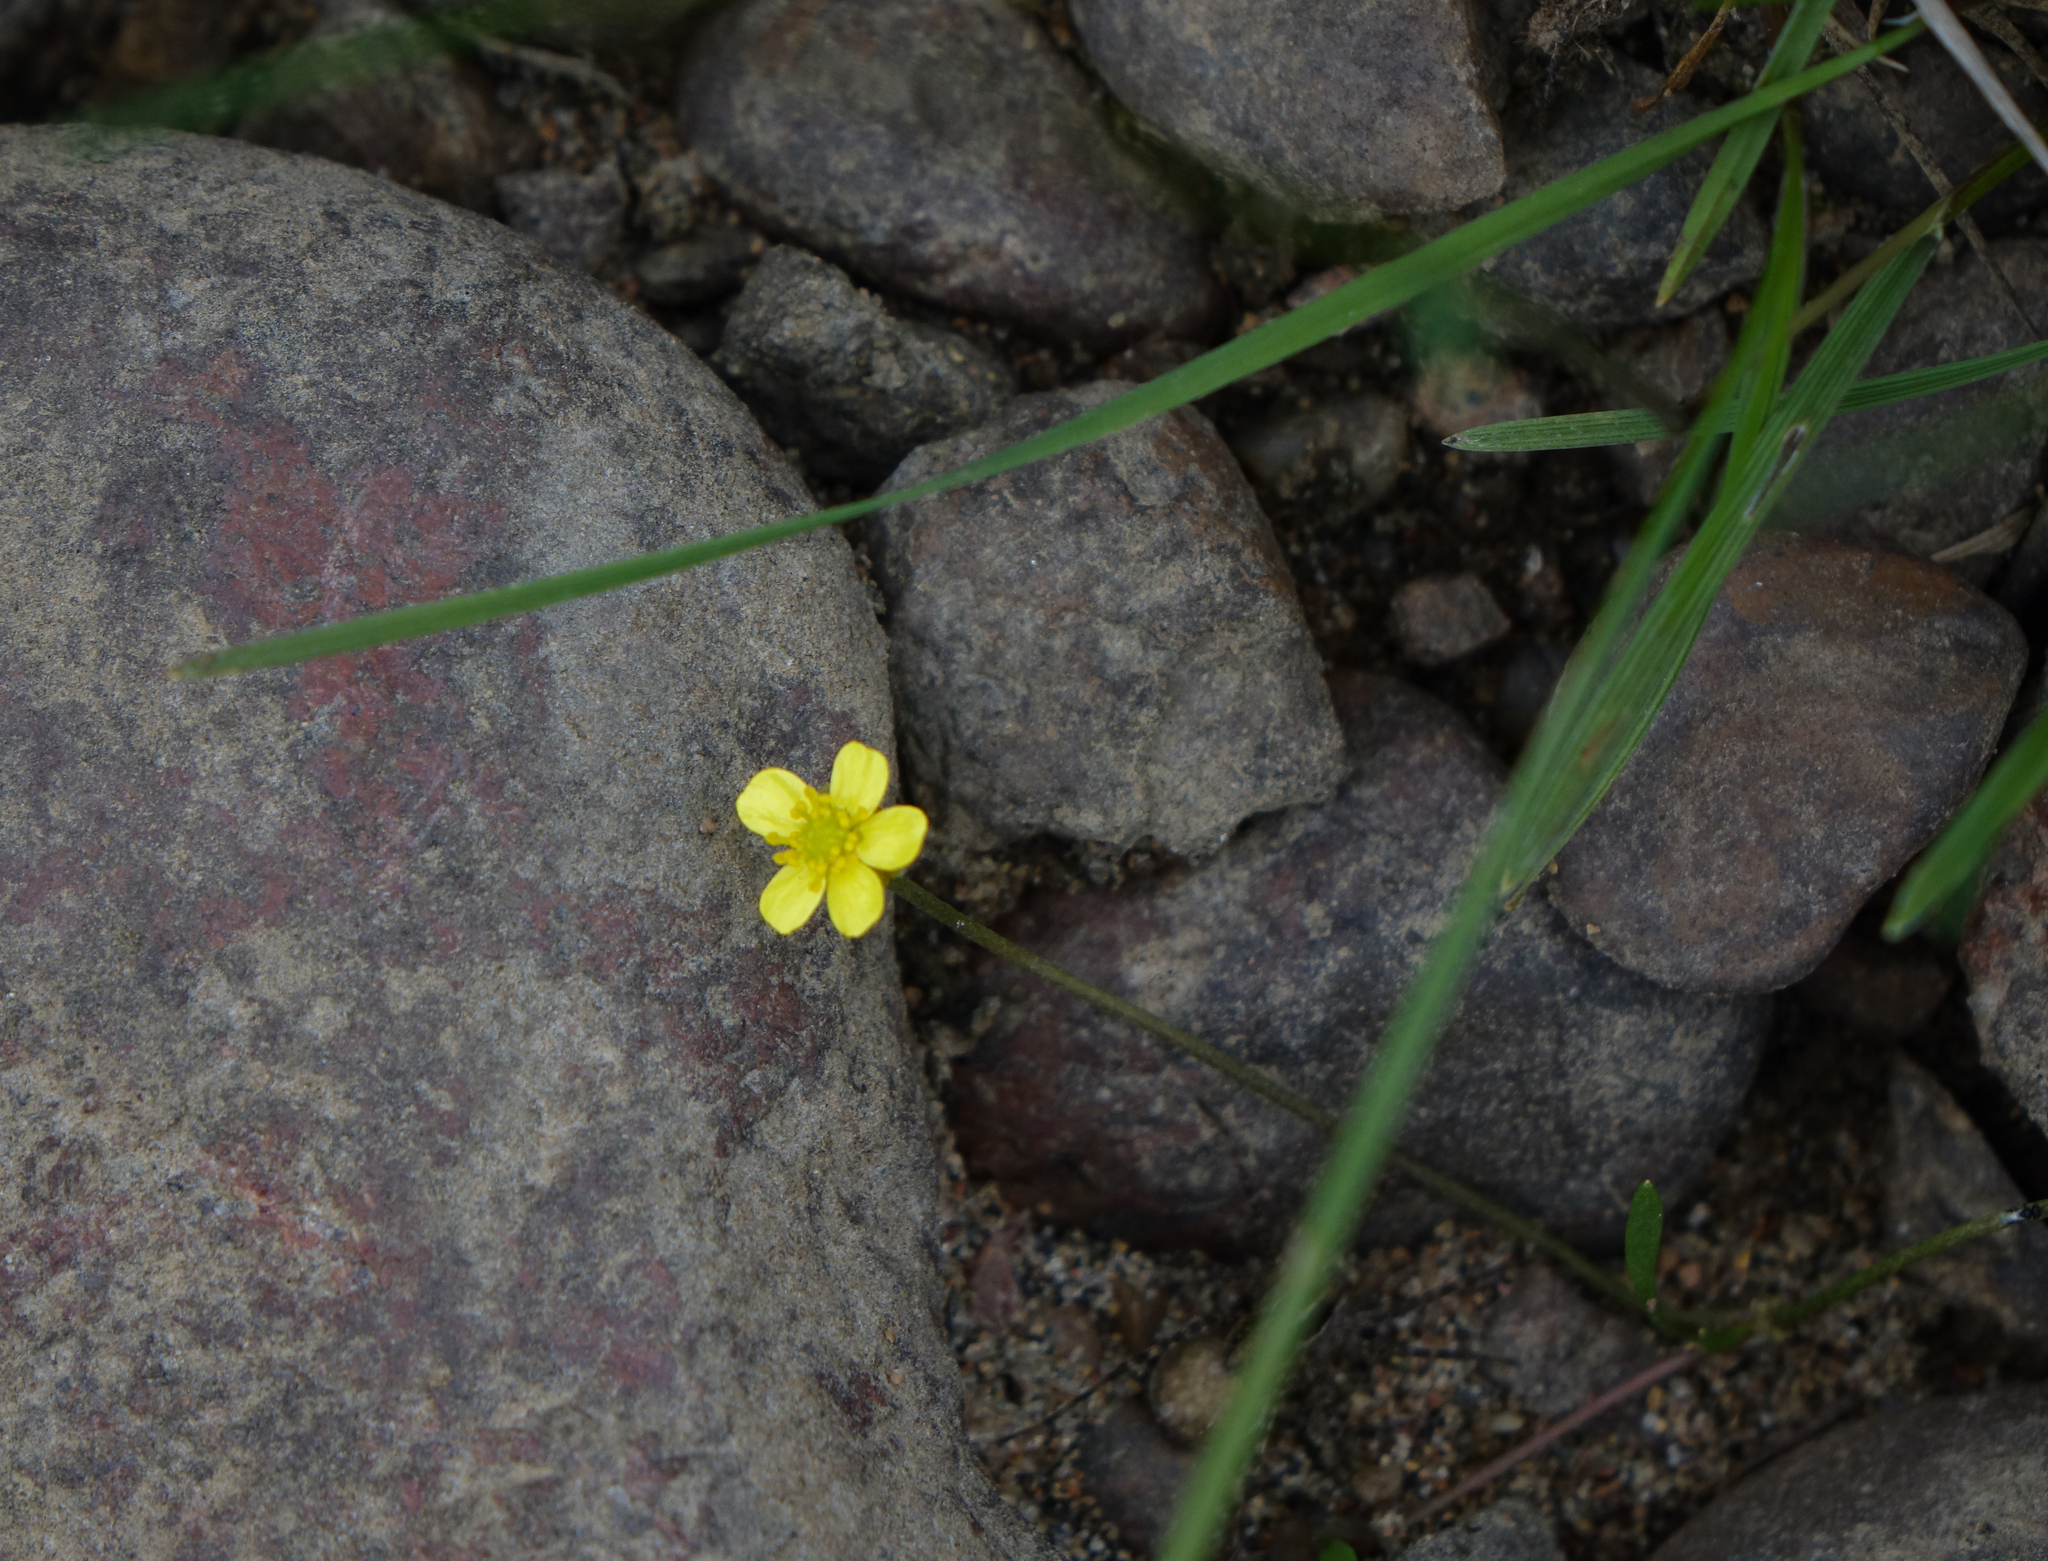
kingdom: Plantae
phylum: Tracheophyta
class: Magnoliopsida
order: Ranunculales
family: Ranunculaceae
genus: Ranunculus
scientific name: Ranunculus reptans
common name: Creeping spearwort
